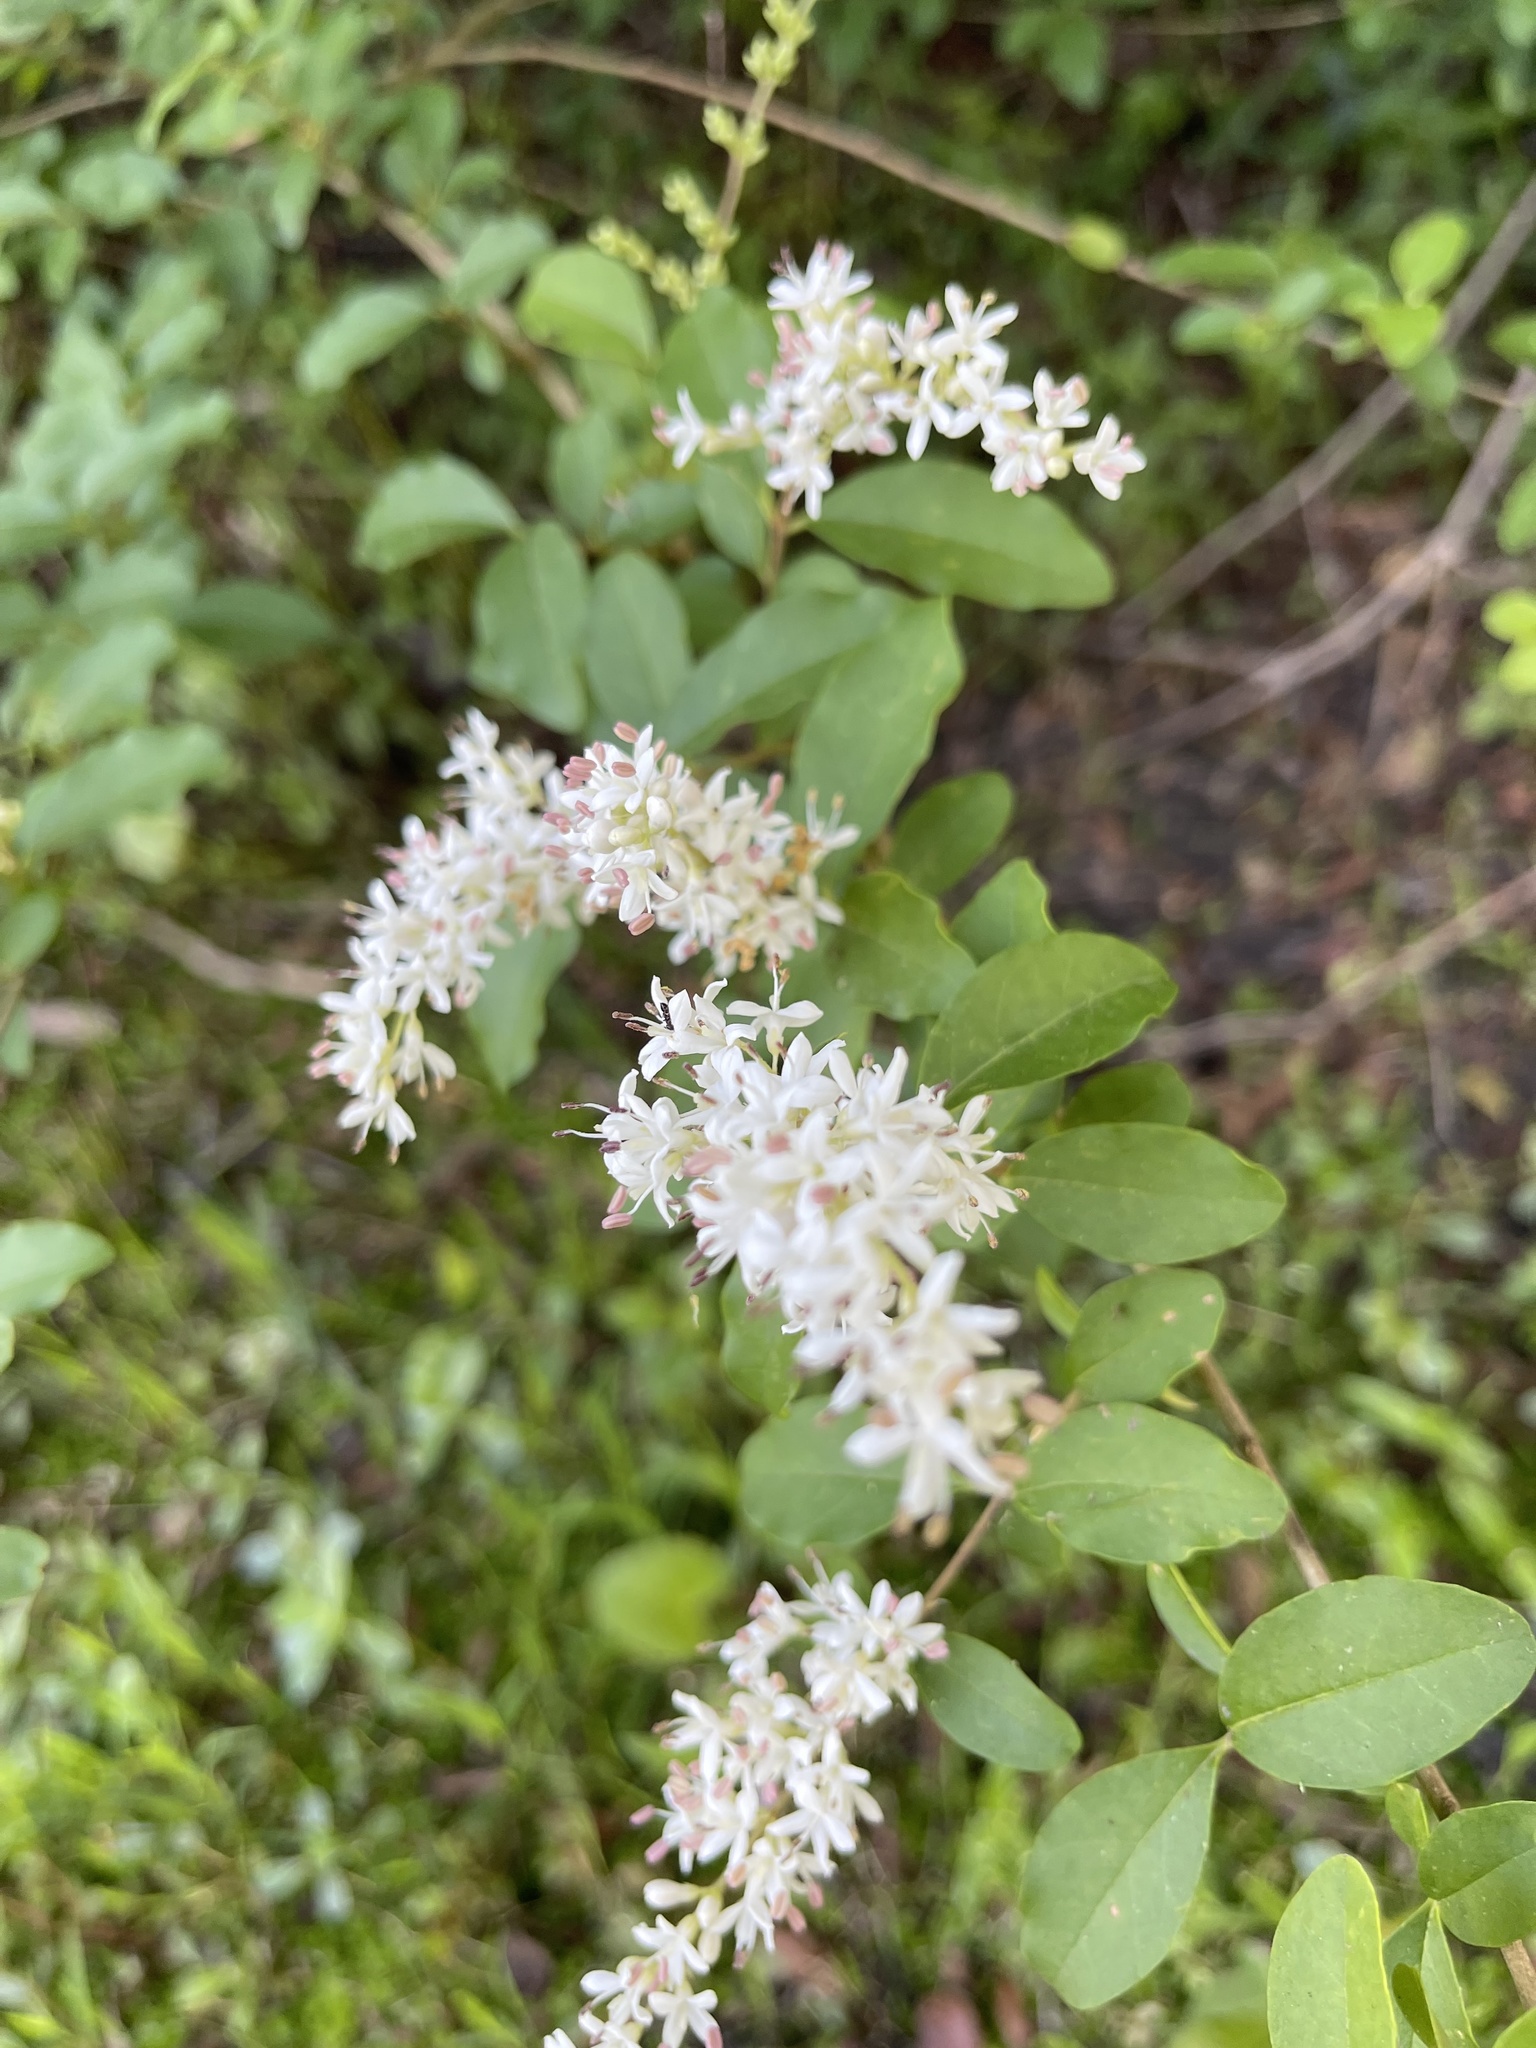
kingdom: Plantae
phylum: Tracheophyta
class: Magnoliopsida
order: Lamiales
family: Oleaceae
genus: Ligustrum
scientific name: Ligustrum sinense
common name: Chinese privet
